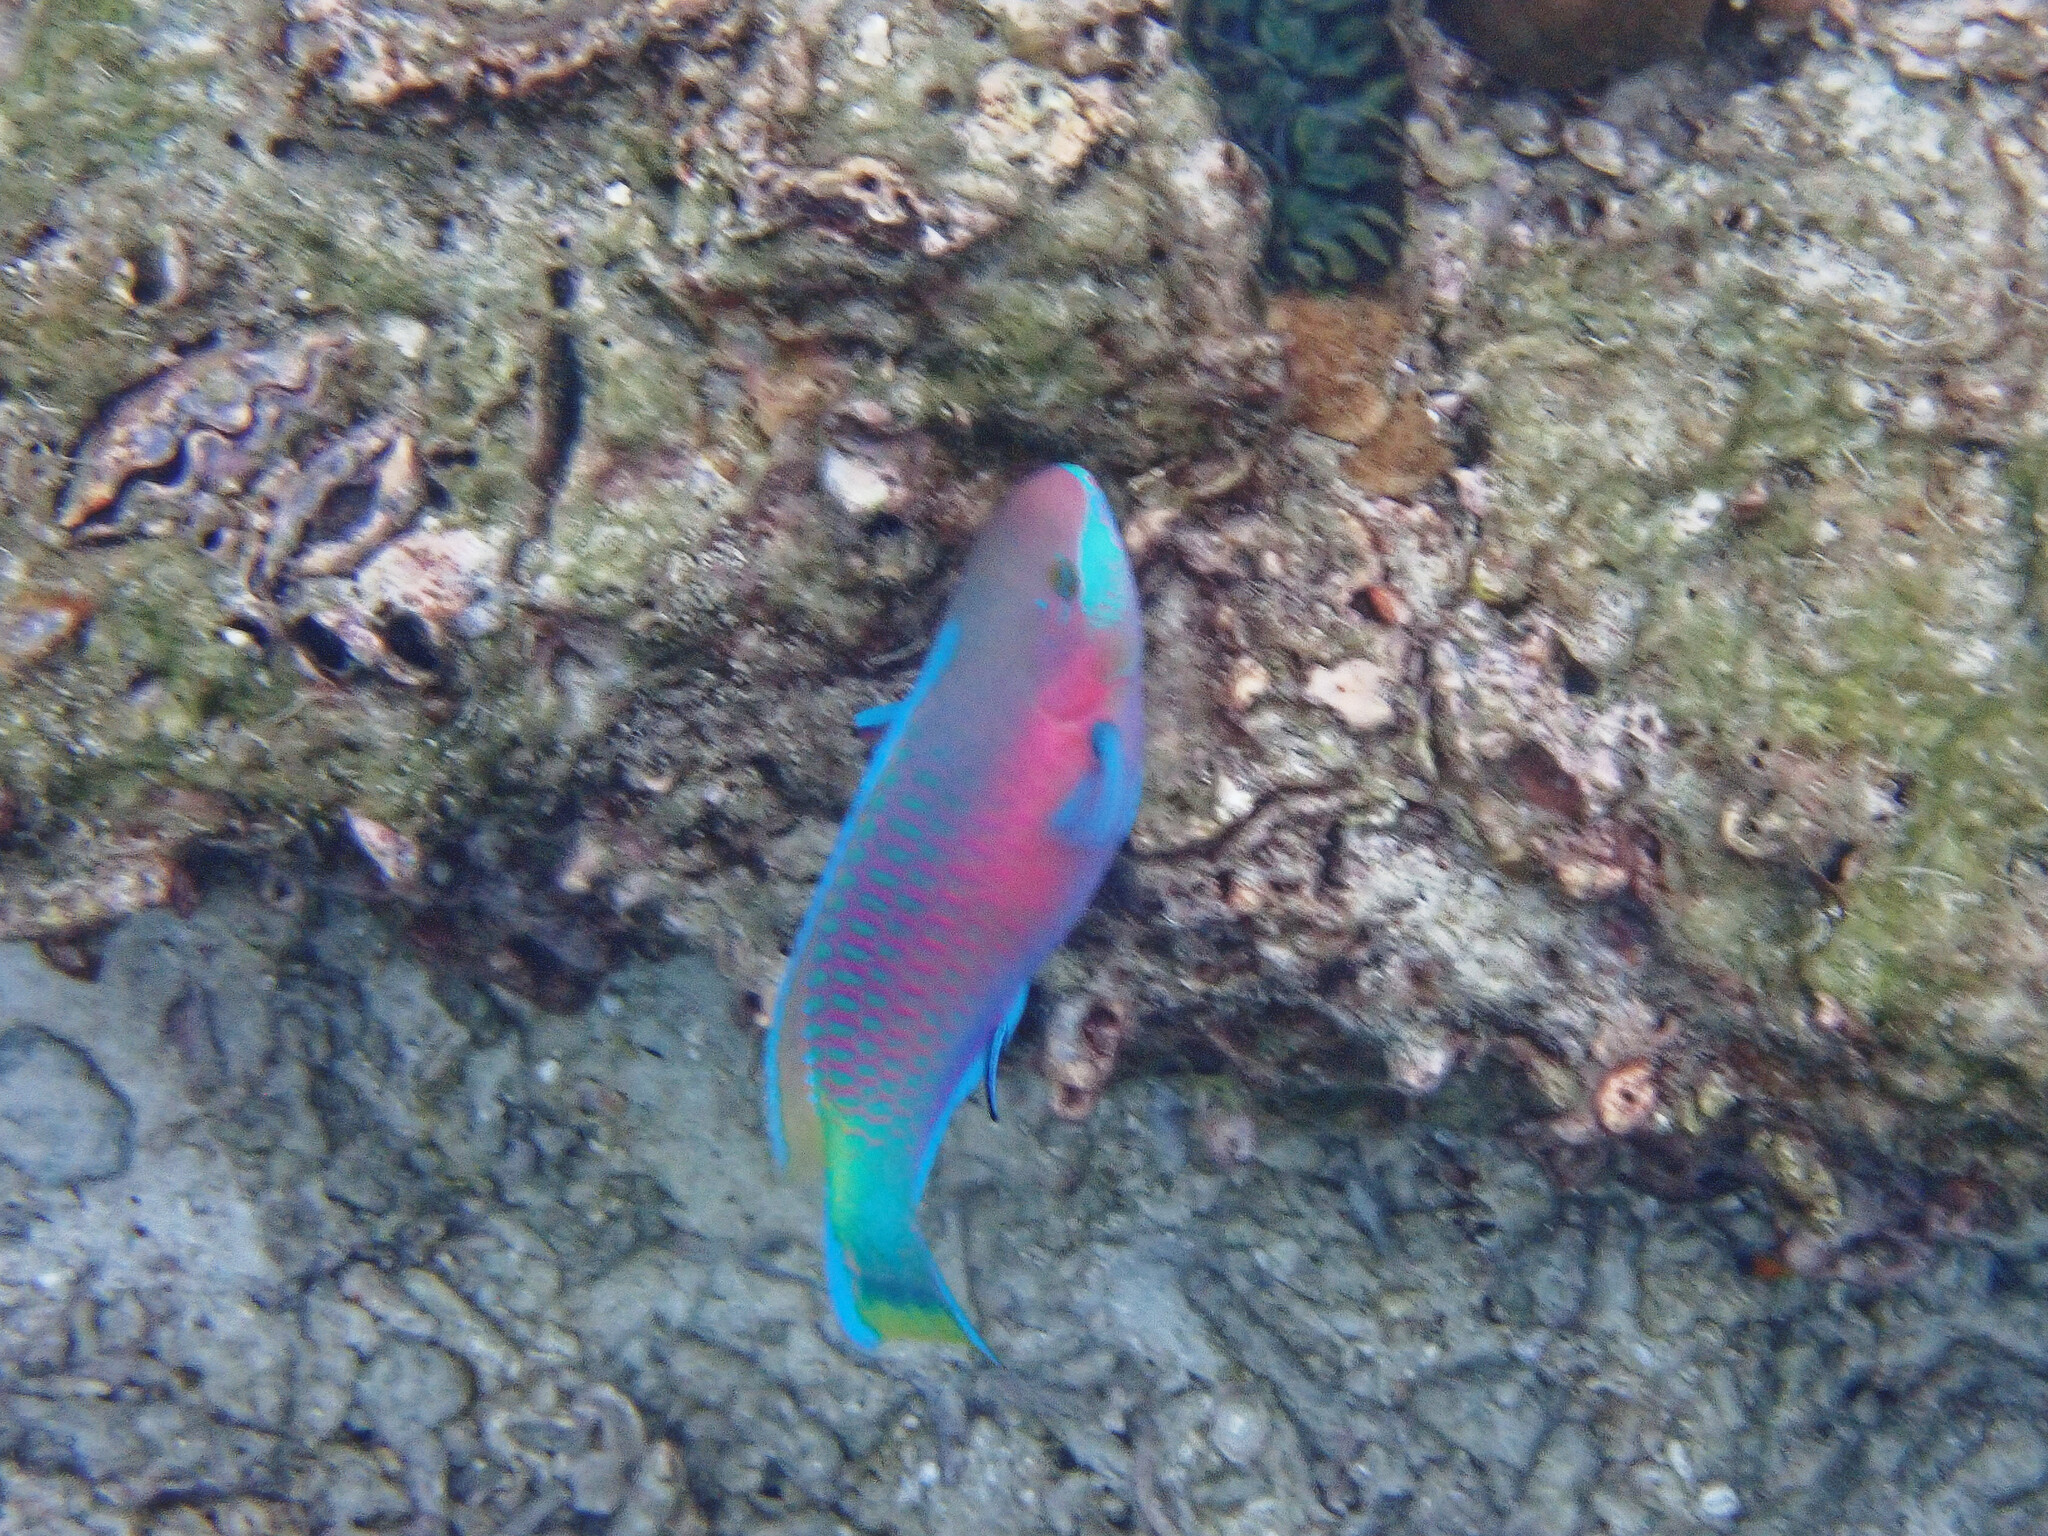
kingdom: Animalia
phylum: Chordata
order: Perciformes
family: Scaridae
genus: Scarus
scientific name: Scarus quoyi
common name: Quoy's parrotfish
